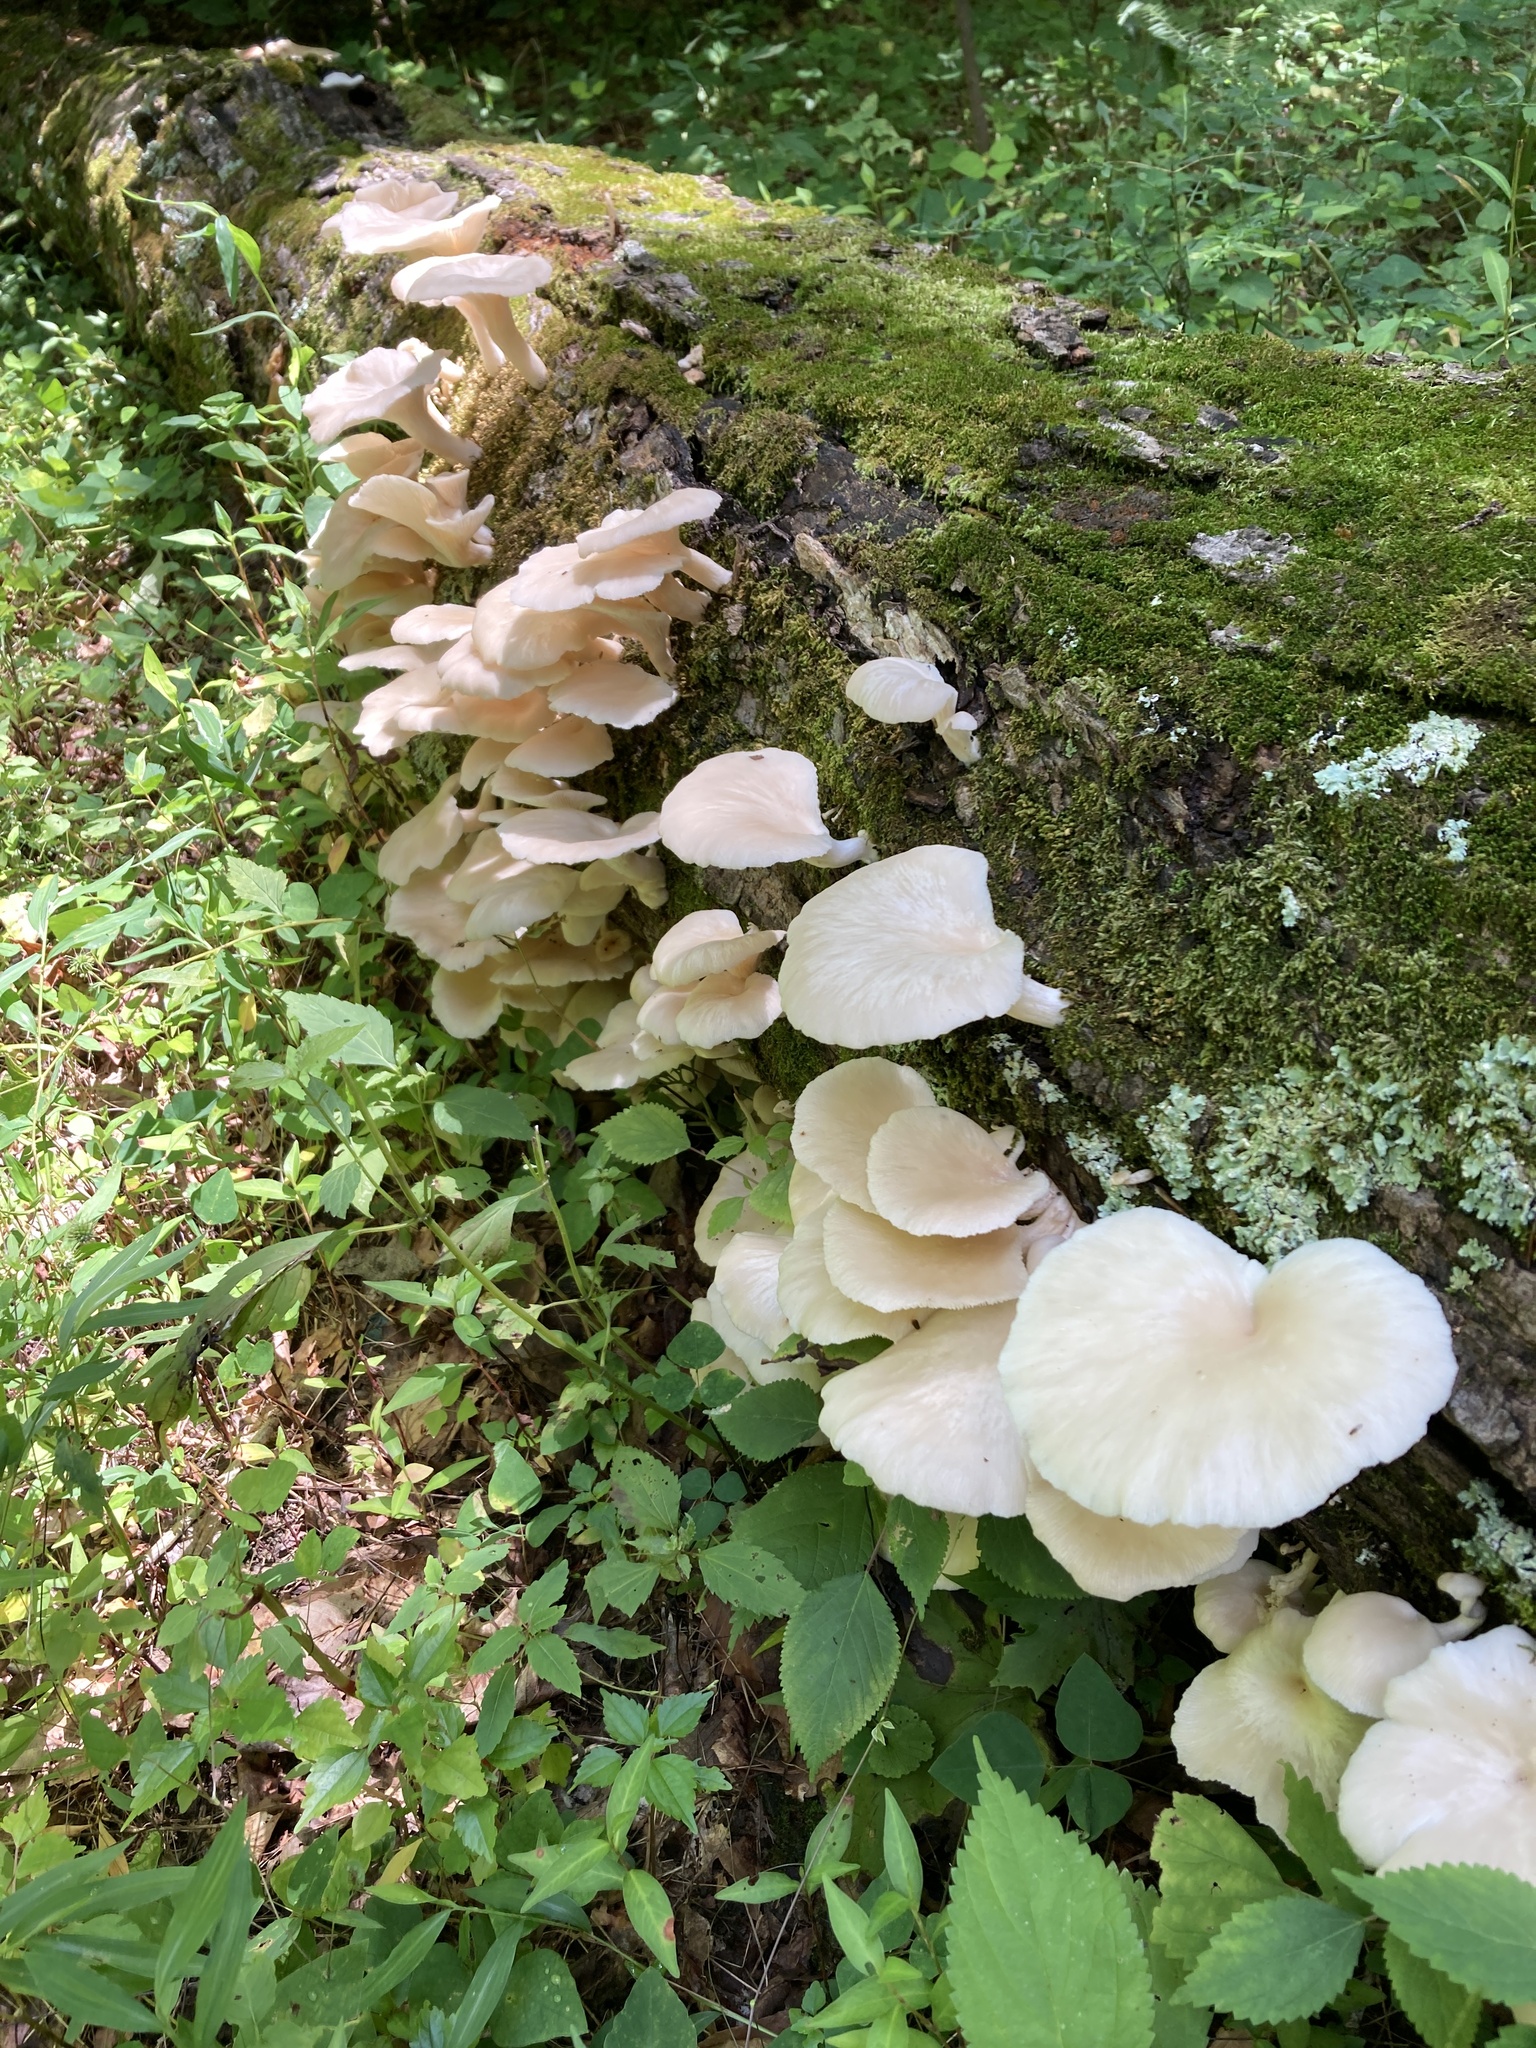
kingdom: Fungi
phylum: Basidiomycota
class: Agaricomycetes
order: Agaricales
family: Pleurotaceae
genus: Pleurotus
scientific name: Pleurotus pulmonarius
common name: Pale oyster
